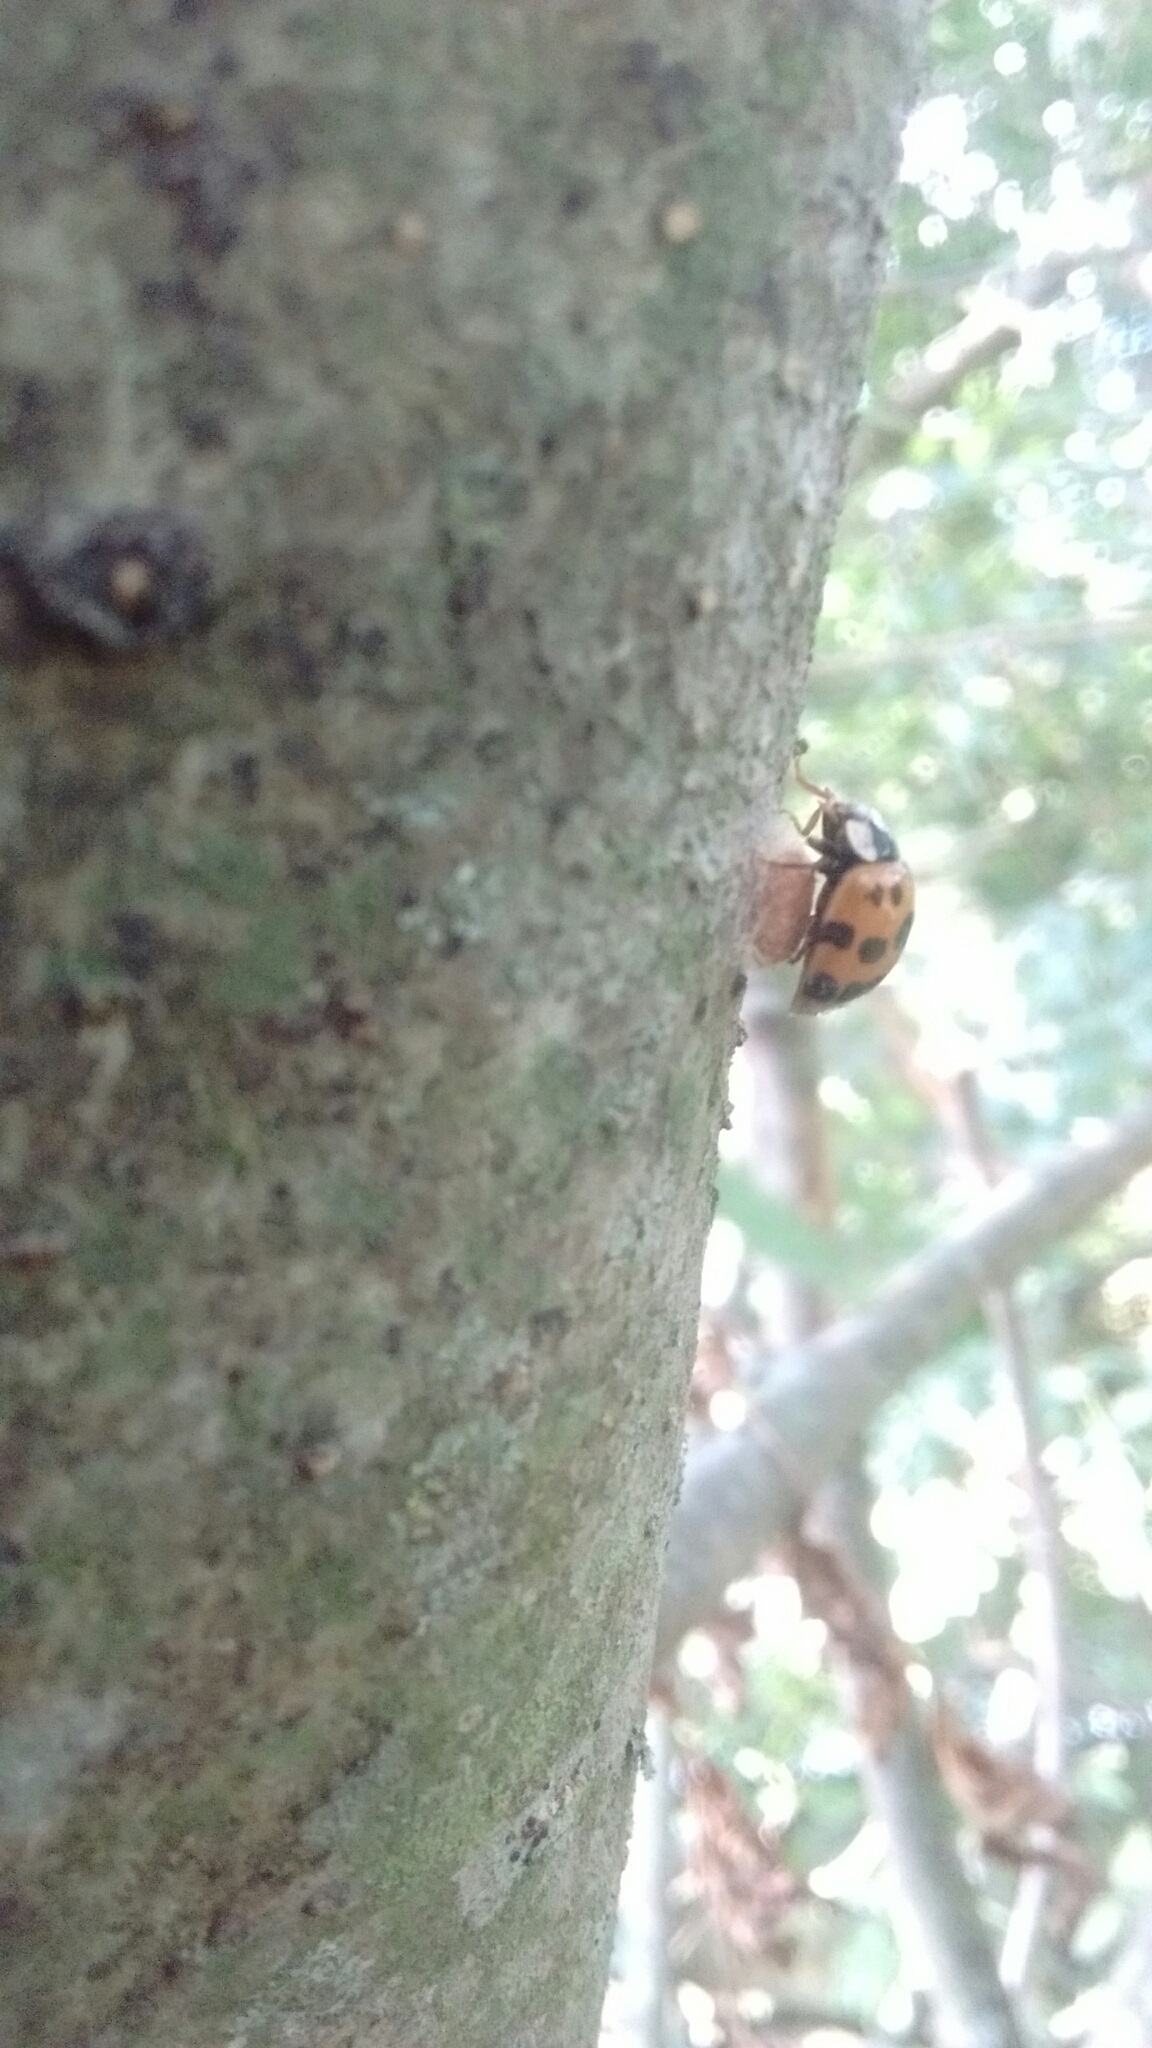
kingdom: Animalia
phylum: Arthropoda
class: Insecta
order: Coleoptera
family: Coccinellidae
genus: Harmonia
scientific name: Harmonia axyridis
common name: Harlequin ladybird
